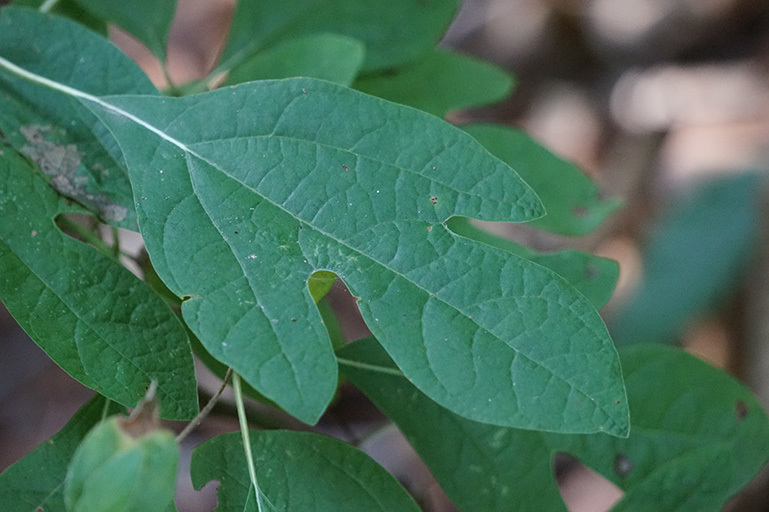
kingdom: Plantae
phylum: Tracheophyta
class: Magnoliopsida
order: Laurales
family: Lauraceae
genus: Sassafras
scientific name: Sassafras albidum
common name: Sassafras
